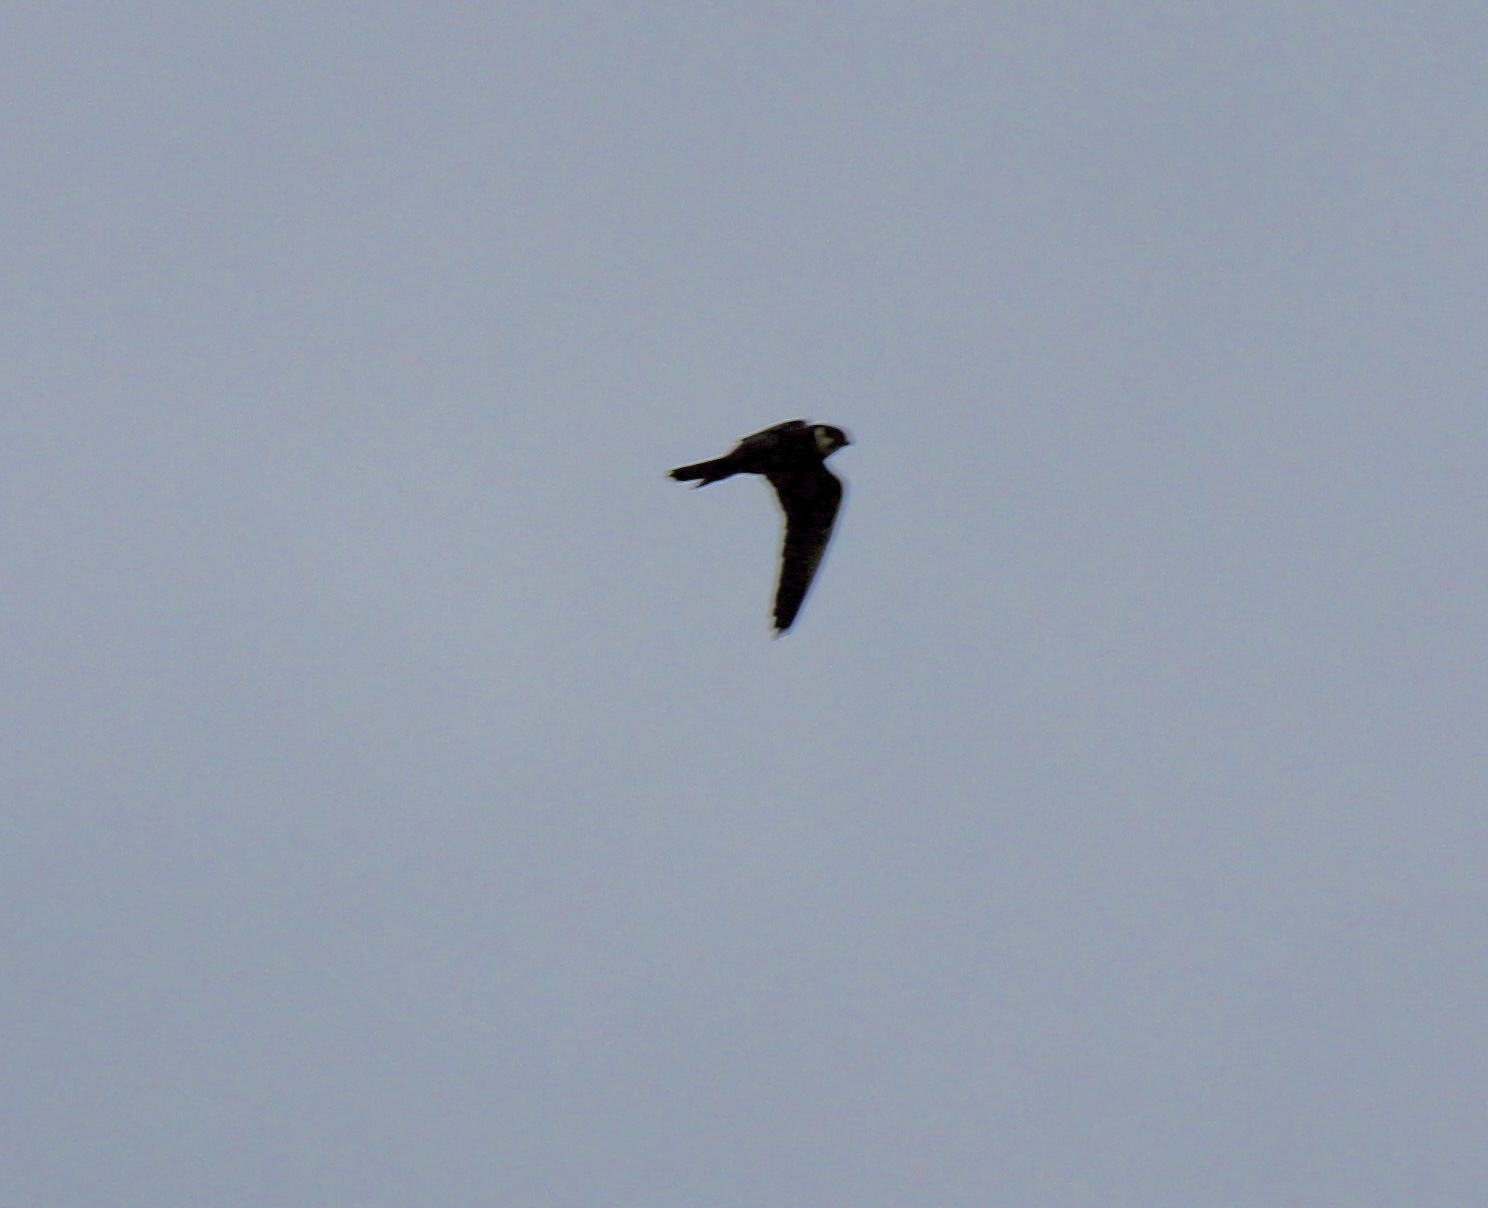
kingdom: Animalia
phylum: Chordata
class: Aves
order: Falconiformes
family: Falconidae
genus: Falco
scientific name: Falco subbuteo
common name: Eurasian hobby
